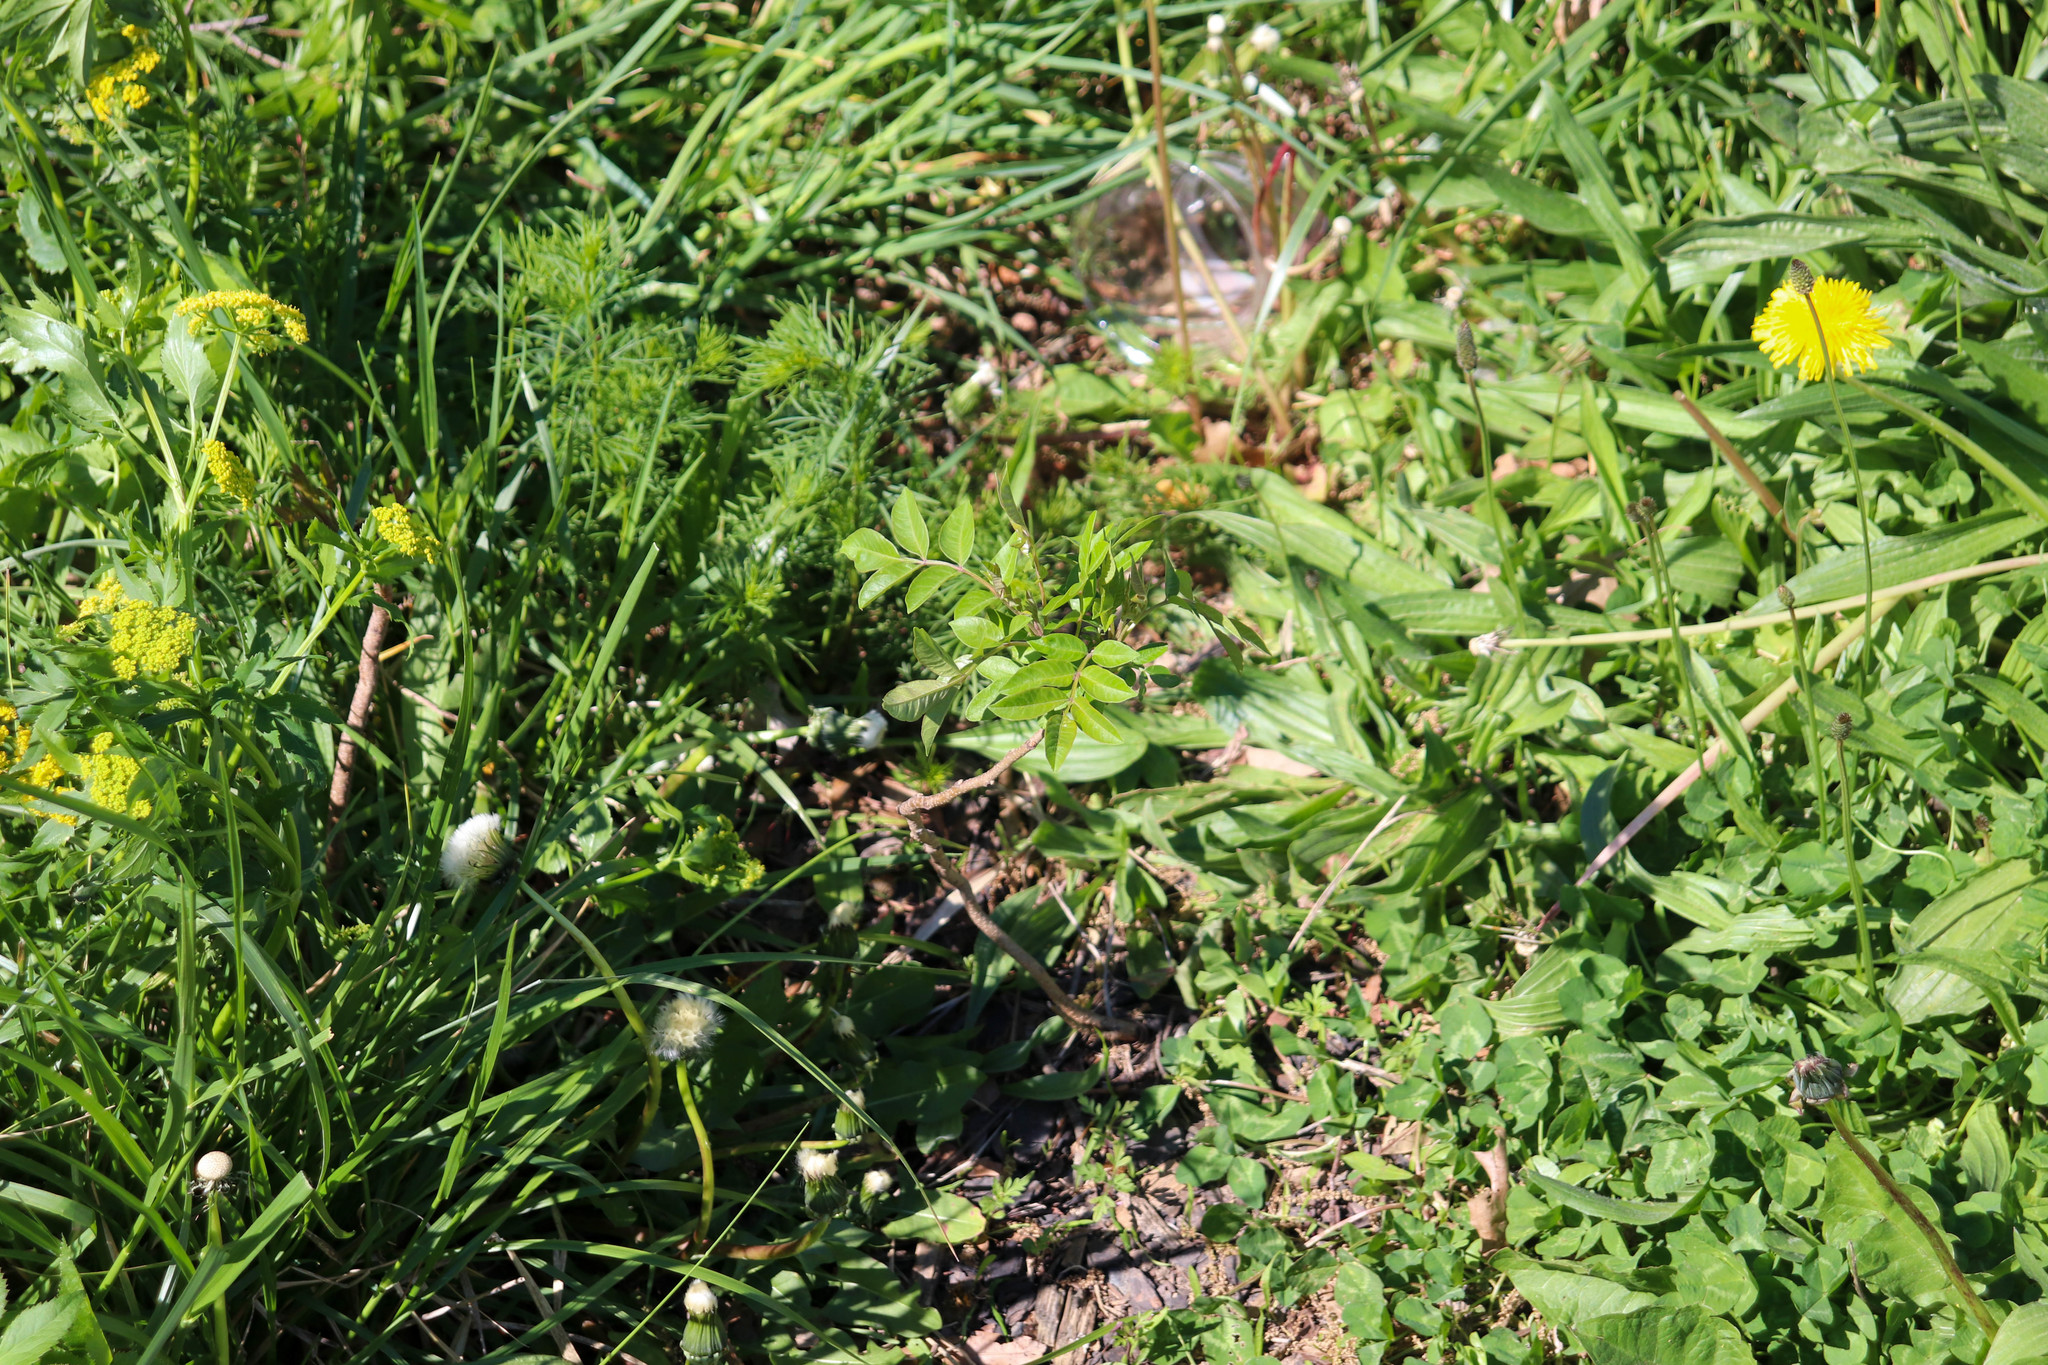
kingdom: Plantae
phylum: Tracheophyta
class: Magnoliopsida
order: Sapindales
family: Anacardiaceae
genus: Rhus
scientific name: Rhus copallina
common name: Shining sumac
